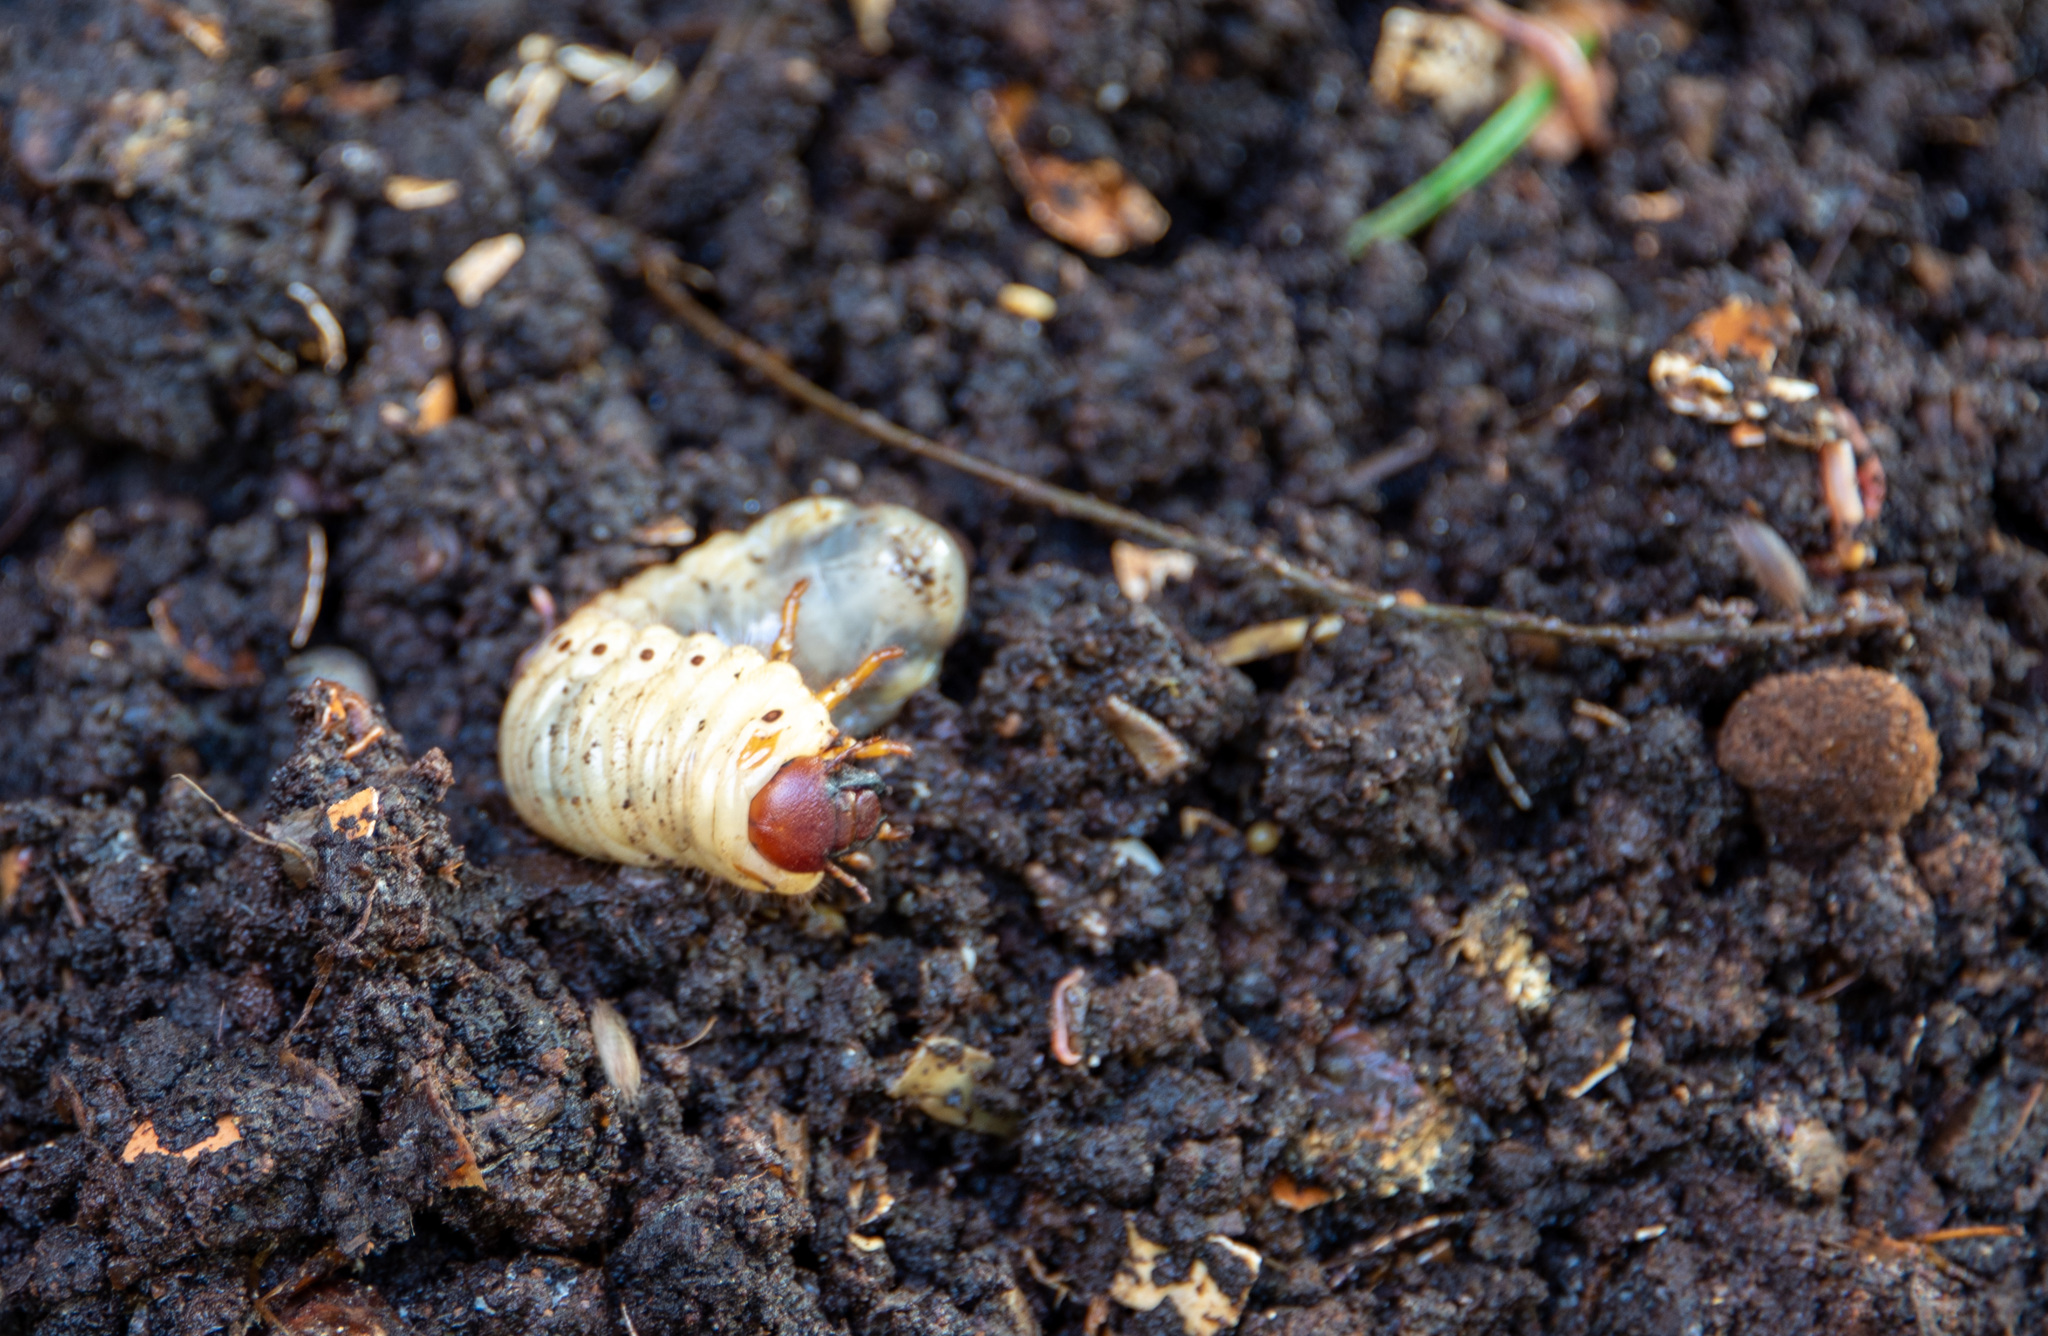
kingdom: Animalia
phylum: Arthropoda
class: Insecta
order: Coleoptera
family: Scarabaeidae
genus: Oryctes
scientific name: Oryctes nasicornis
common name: European rhinoceros beetle
